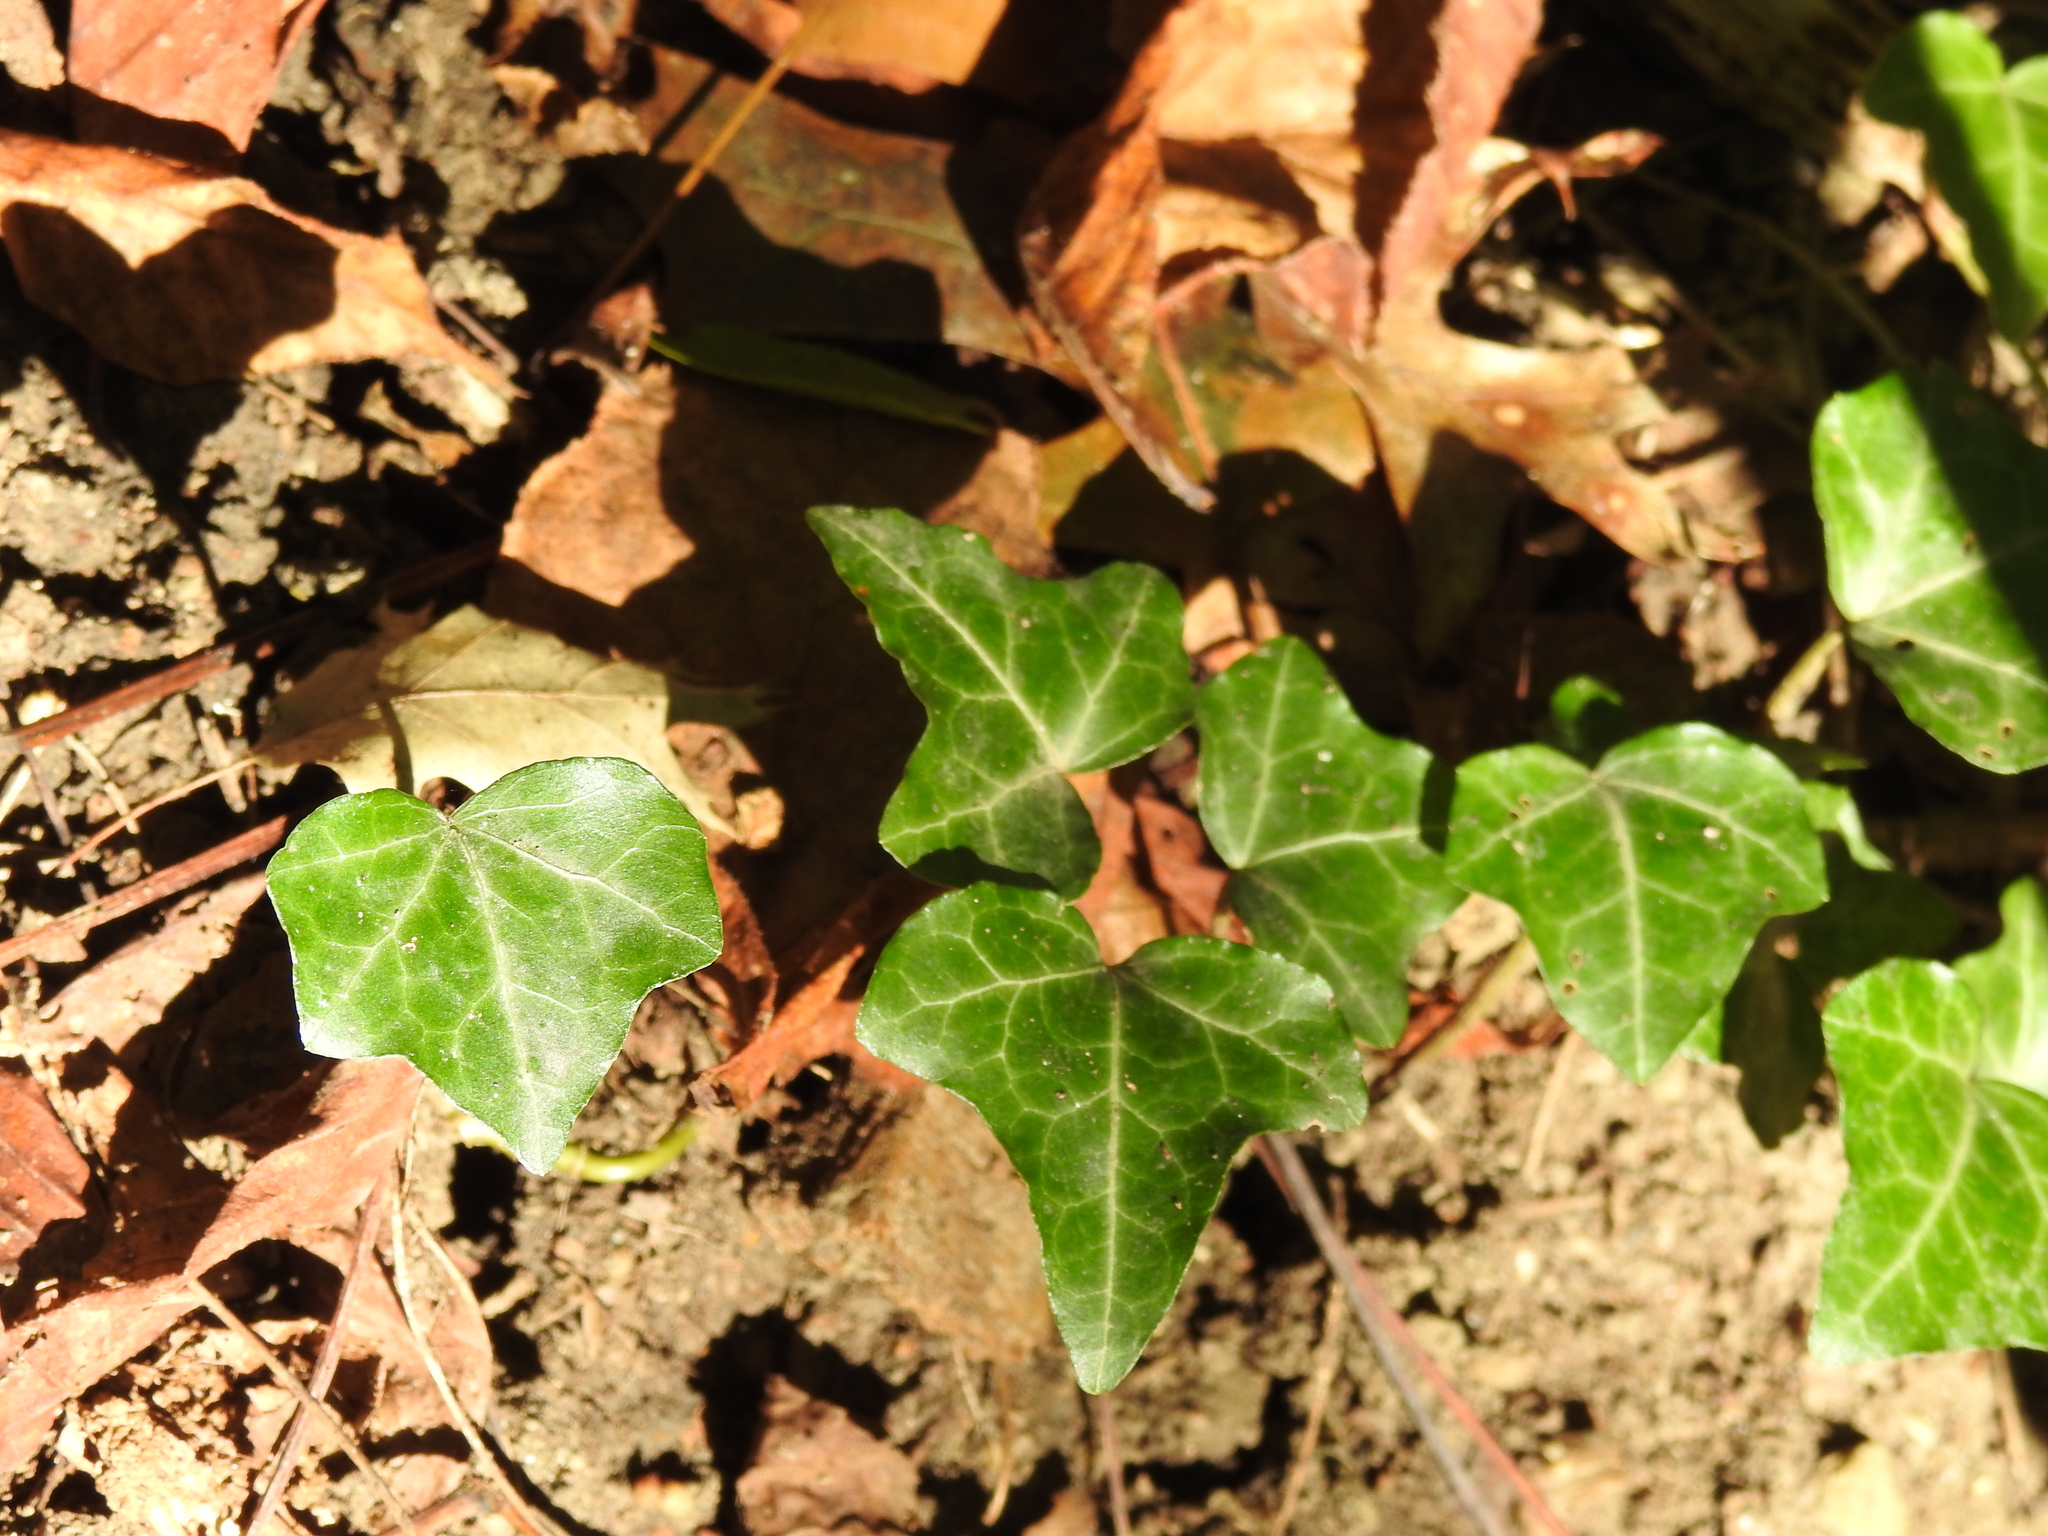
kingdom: Plantae
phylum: Tracheophyta
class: Magnoliopsida
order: Apiales
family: Araliaceae
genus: Hedera
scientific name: Hedera helix
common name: Ivy
